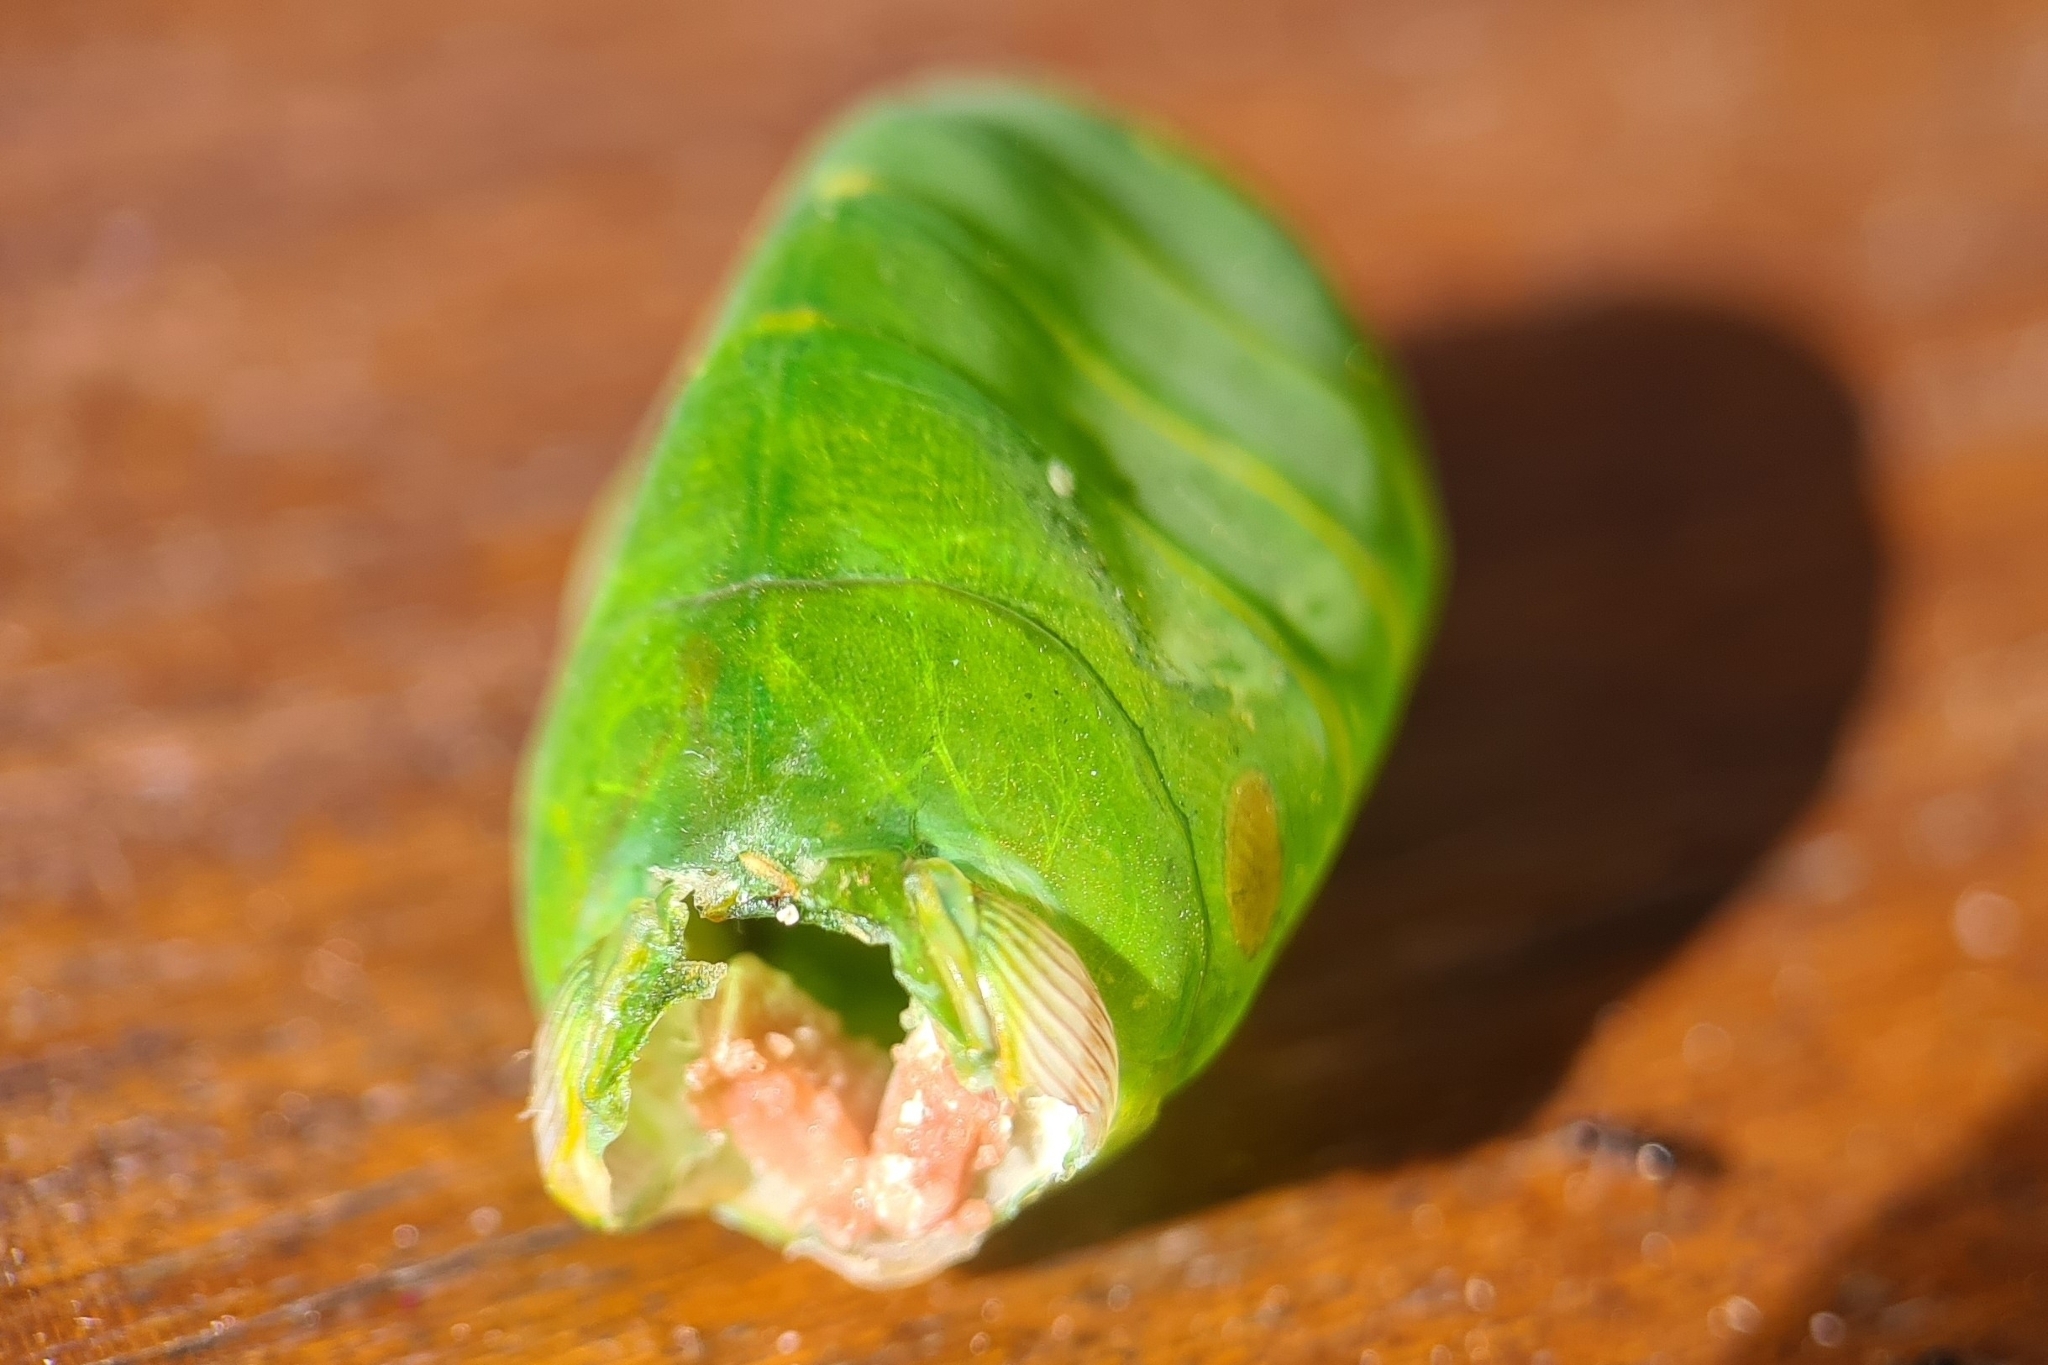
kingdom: Animalia
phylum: Arthropoda
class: Insecta
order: Hemiptera
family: Cicadidae
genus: Glaucopsaltria
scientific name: Glaucopsaltria viridis
